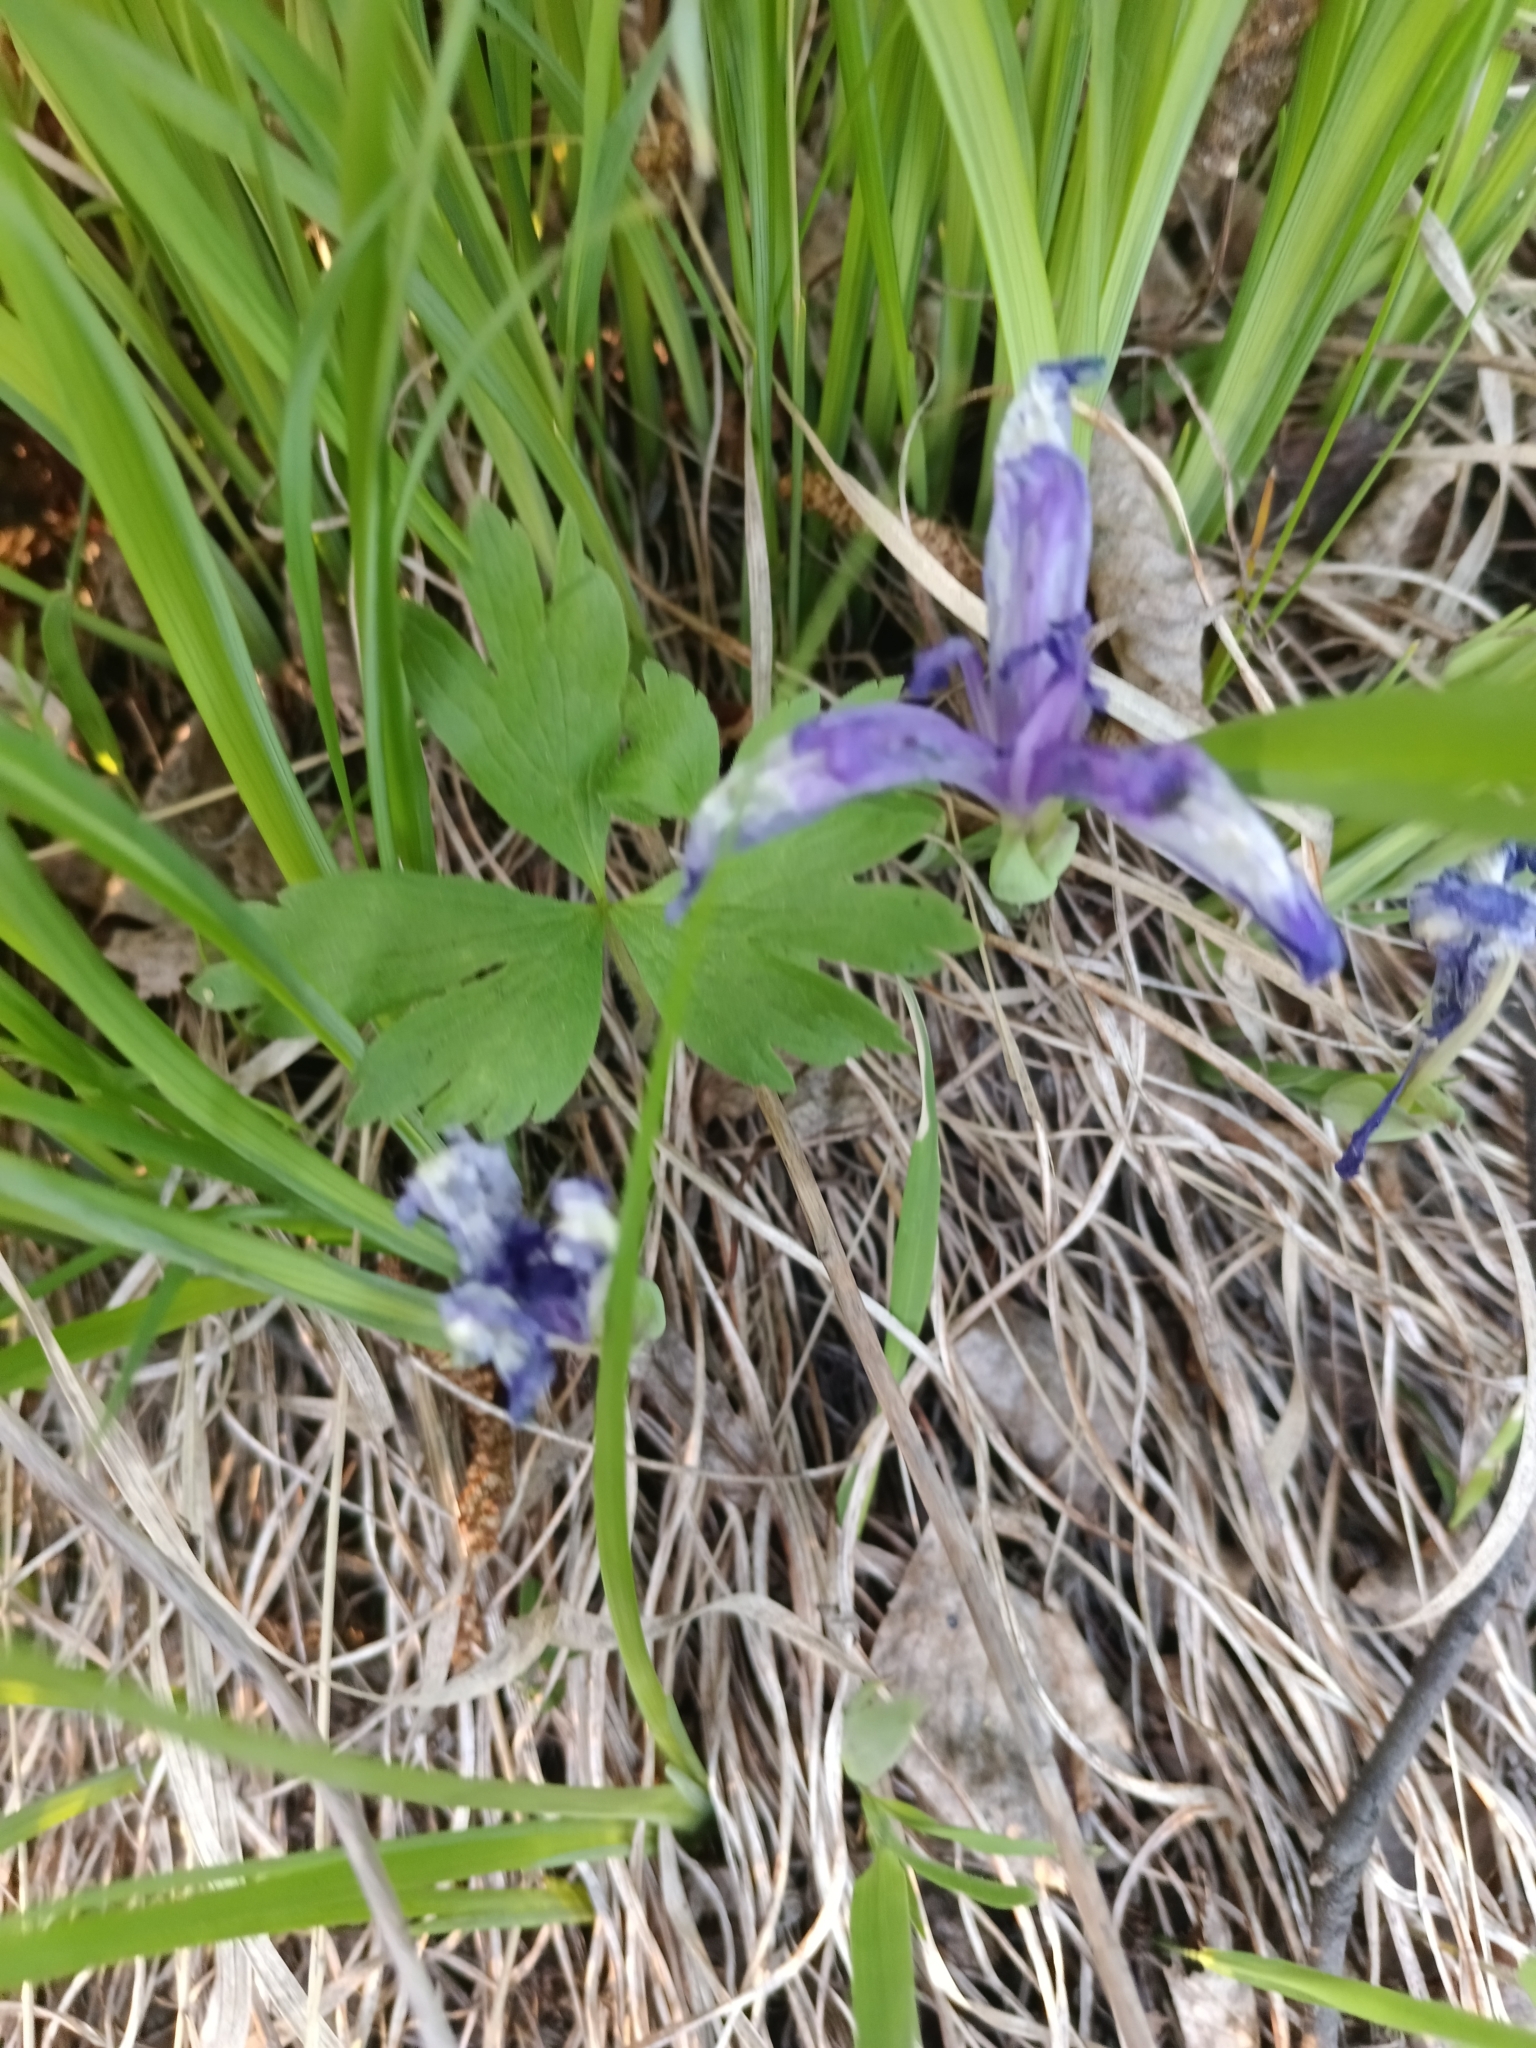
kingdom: Plantae
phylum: Tracheophyta
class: Liliopsida
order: Asparagales
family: Iridaceae
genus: Iris
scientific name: Iris ruthenica
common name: Purple-bract iris
